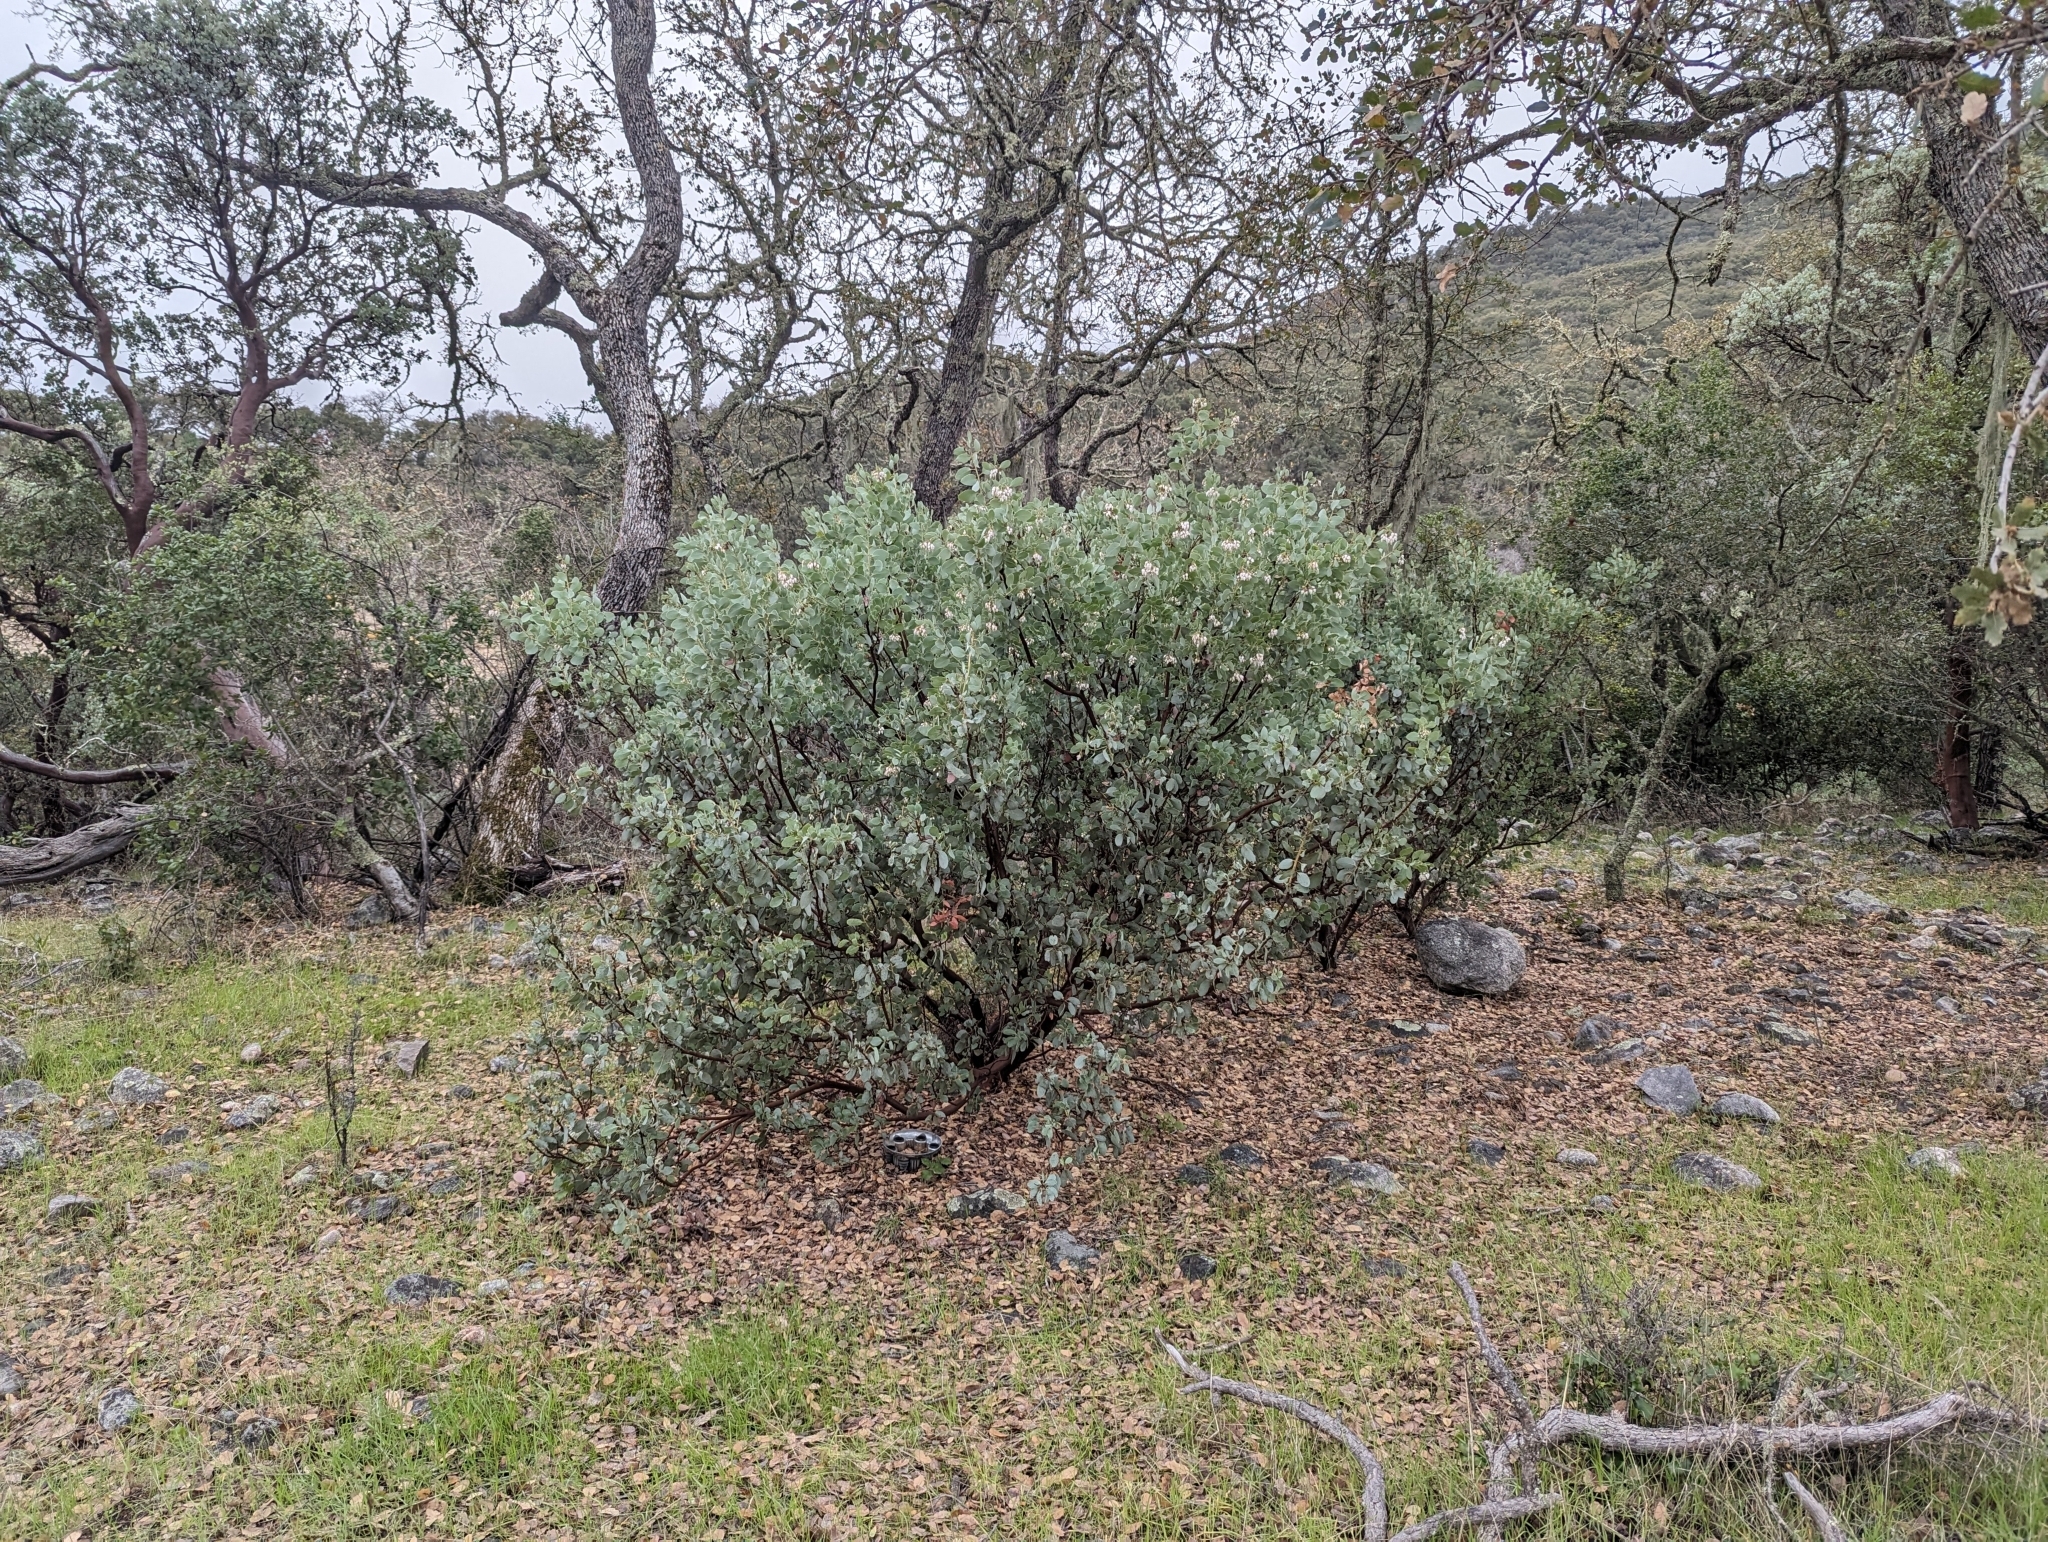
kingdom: Plantae
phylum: Tracheophyta
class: Magnoliopsida
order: Ericales
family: Ericaceae
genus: Arctostaphylos
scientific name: Arctostaphylos glauca
